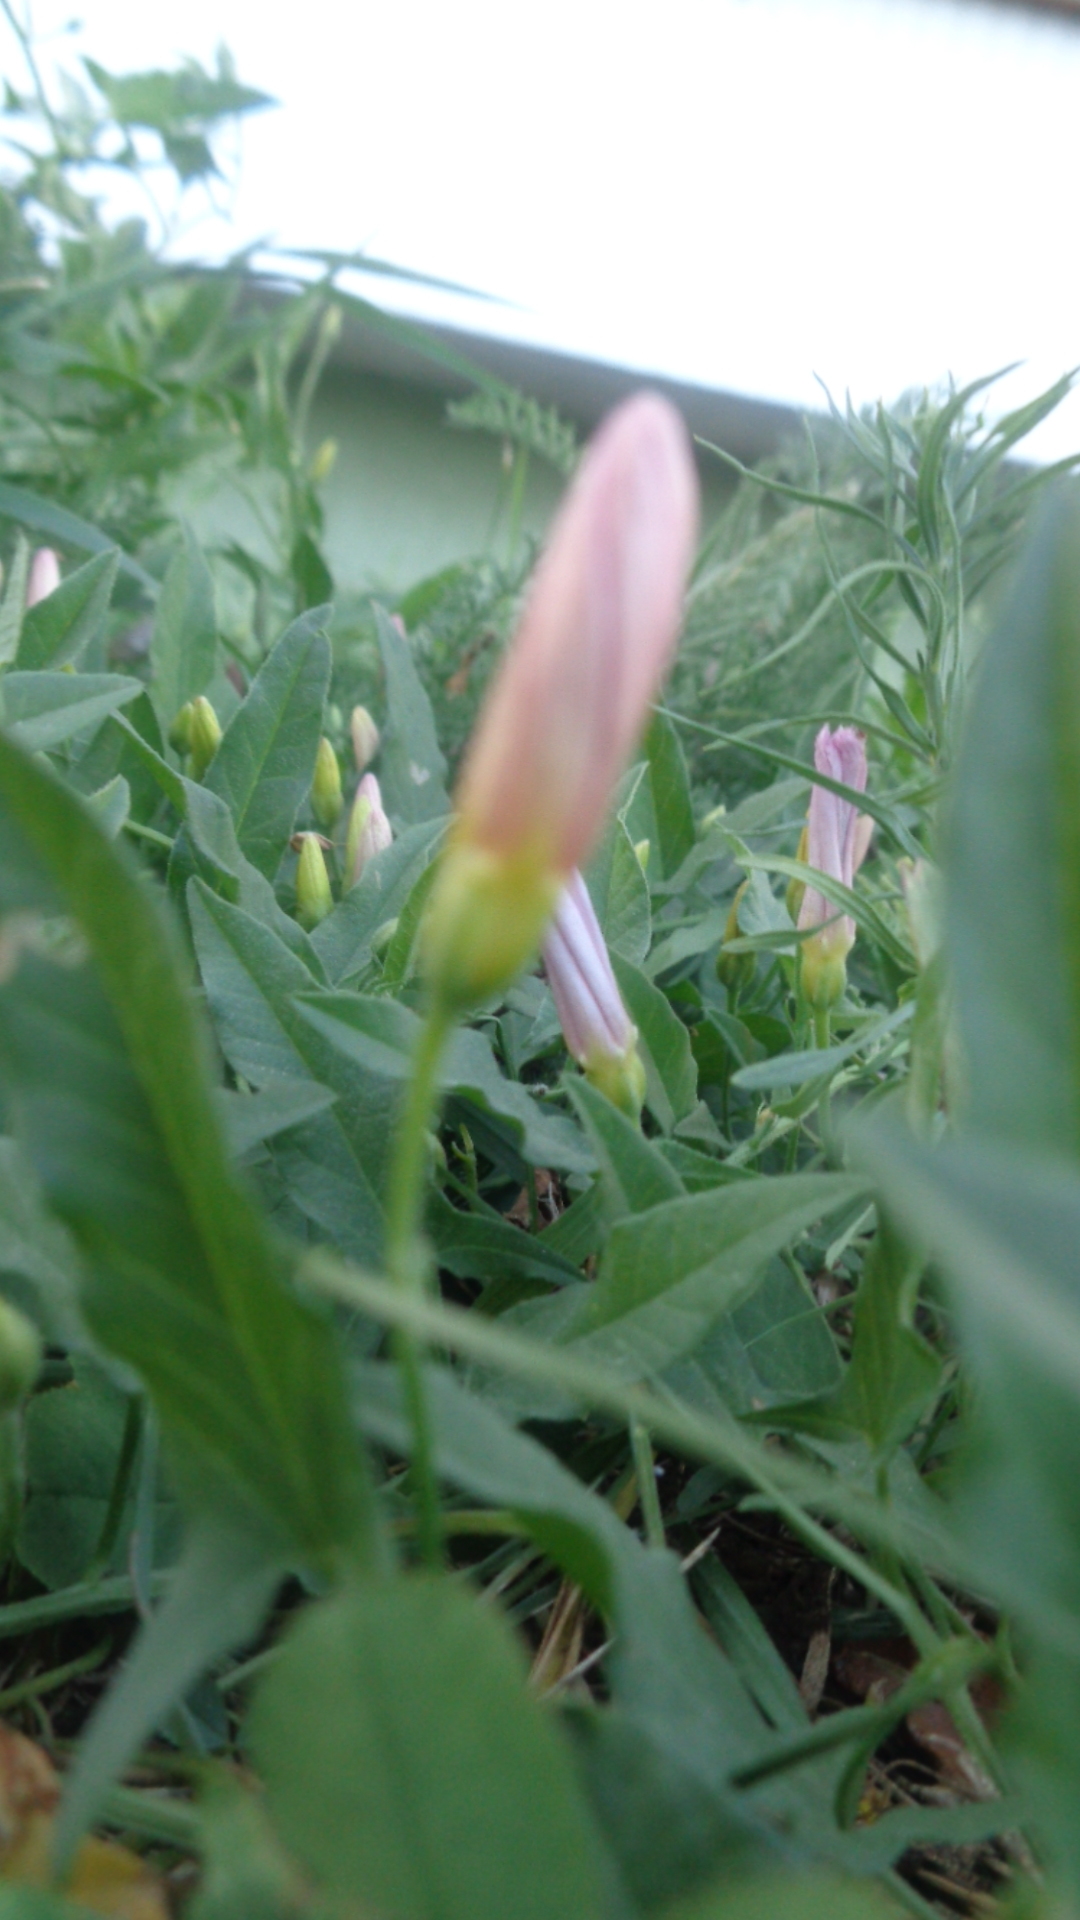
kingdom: Plantae
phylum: Tracheophyta
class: Magnoliopsida
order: Solanales
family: Convolvulaceae
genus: Convolvulus
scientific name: Convolvulus arvensis
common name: Field bindweed
